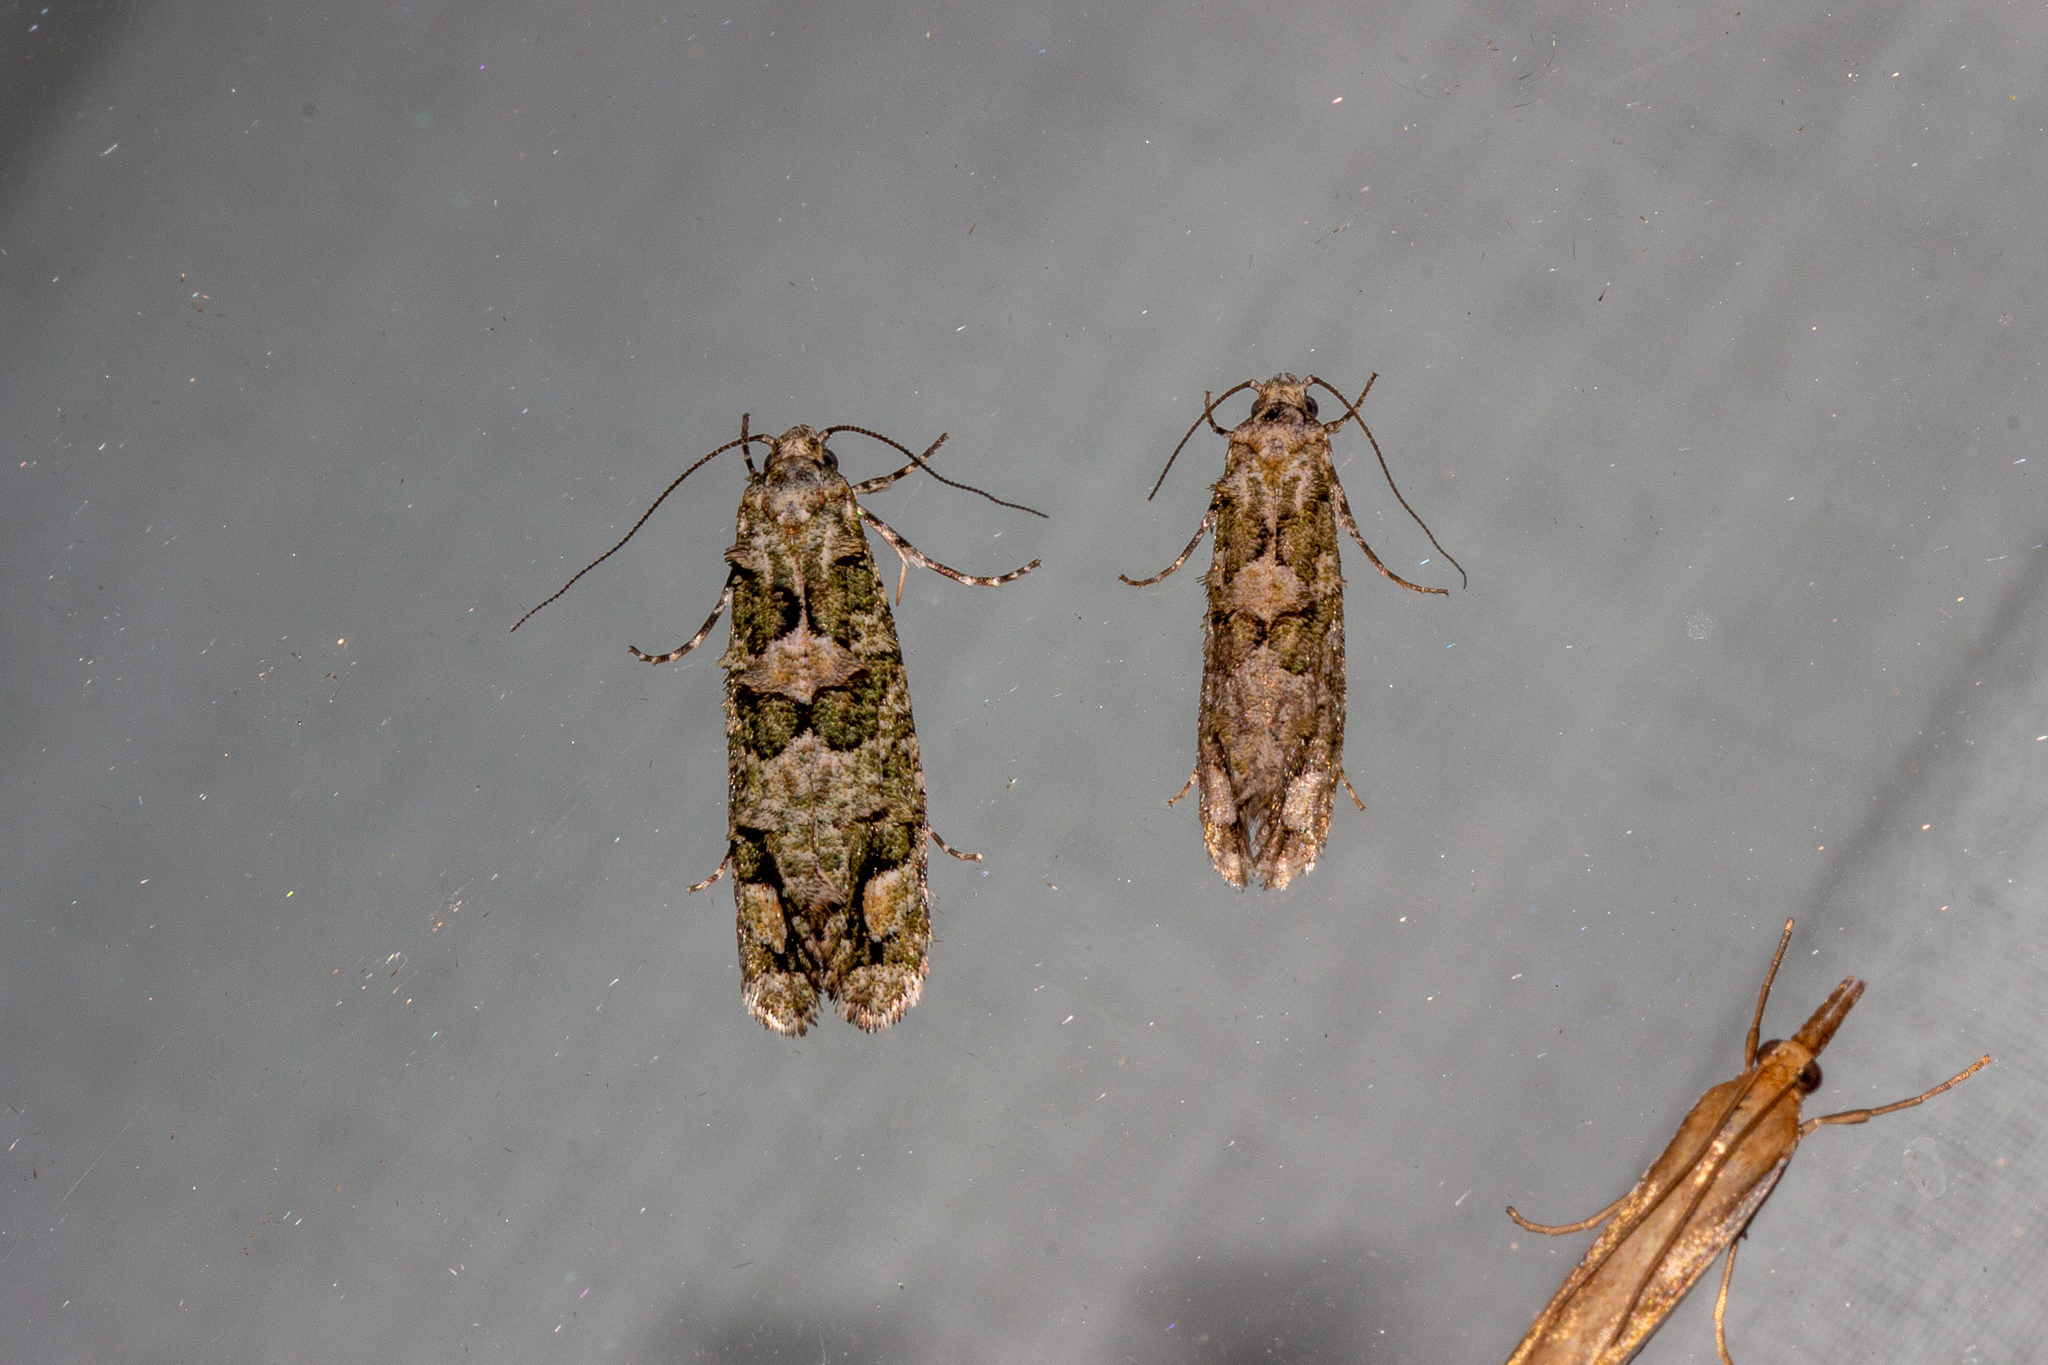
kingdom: Animalia
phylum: Arthropoda
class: Insecta
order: Lepidoptera
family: Tineidae
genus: Lysiphragma
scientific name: Lysiphragma howesii
